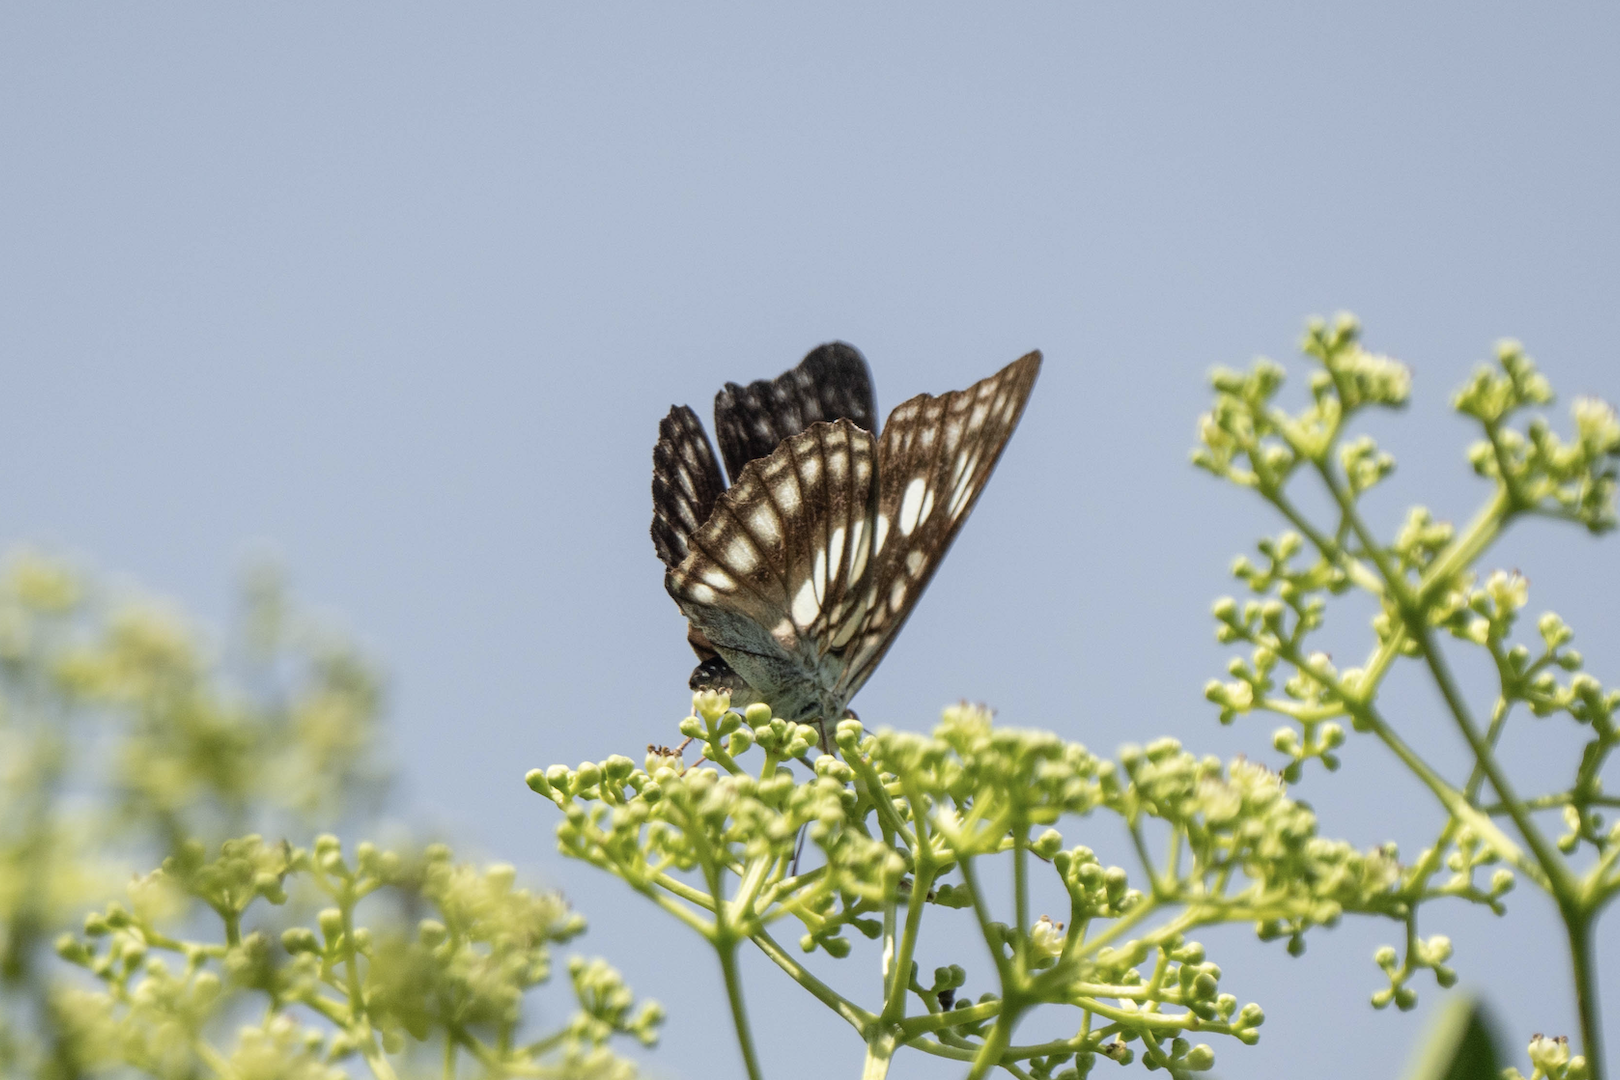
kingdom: Animalia
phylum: Arthropoda
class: Insecta
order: Lepidoptera
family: Nymphalidae
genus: Parathyma
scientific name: Parathyma ranga
